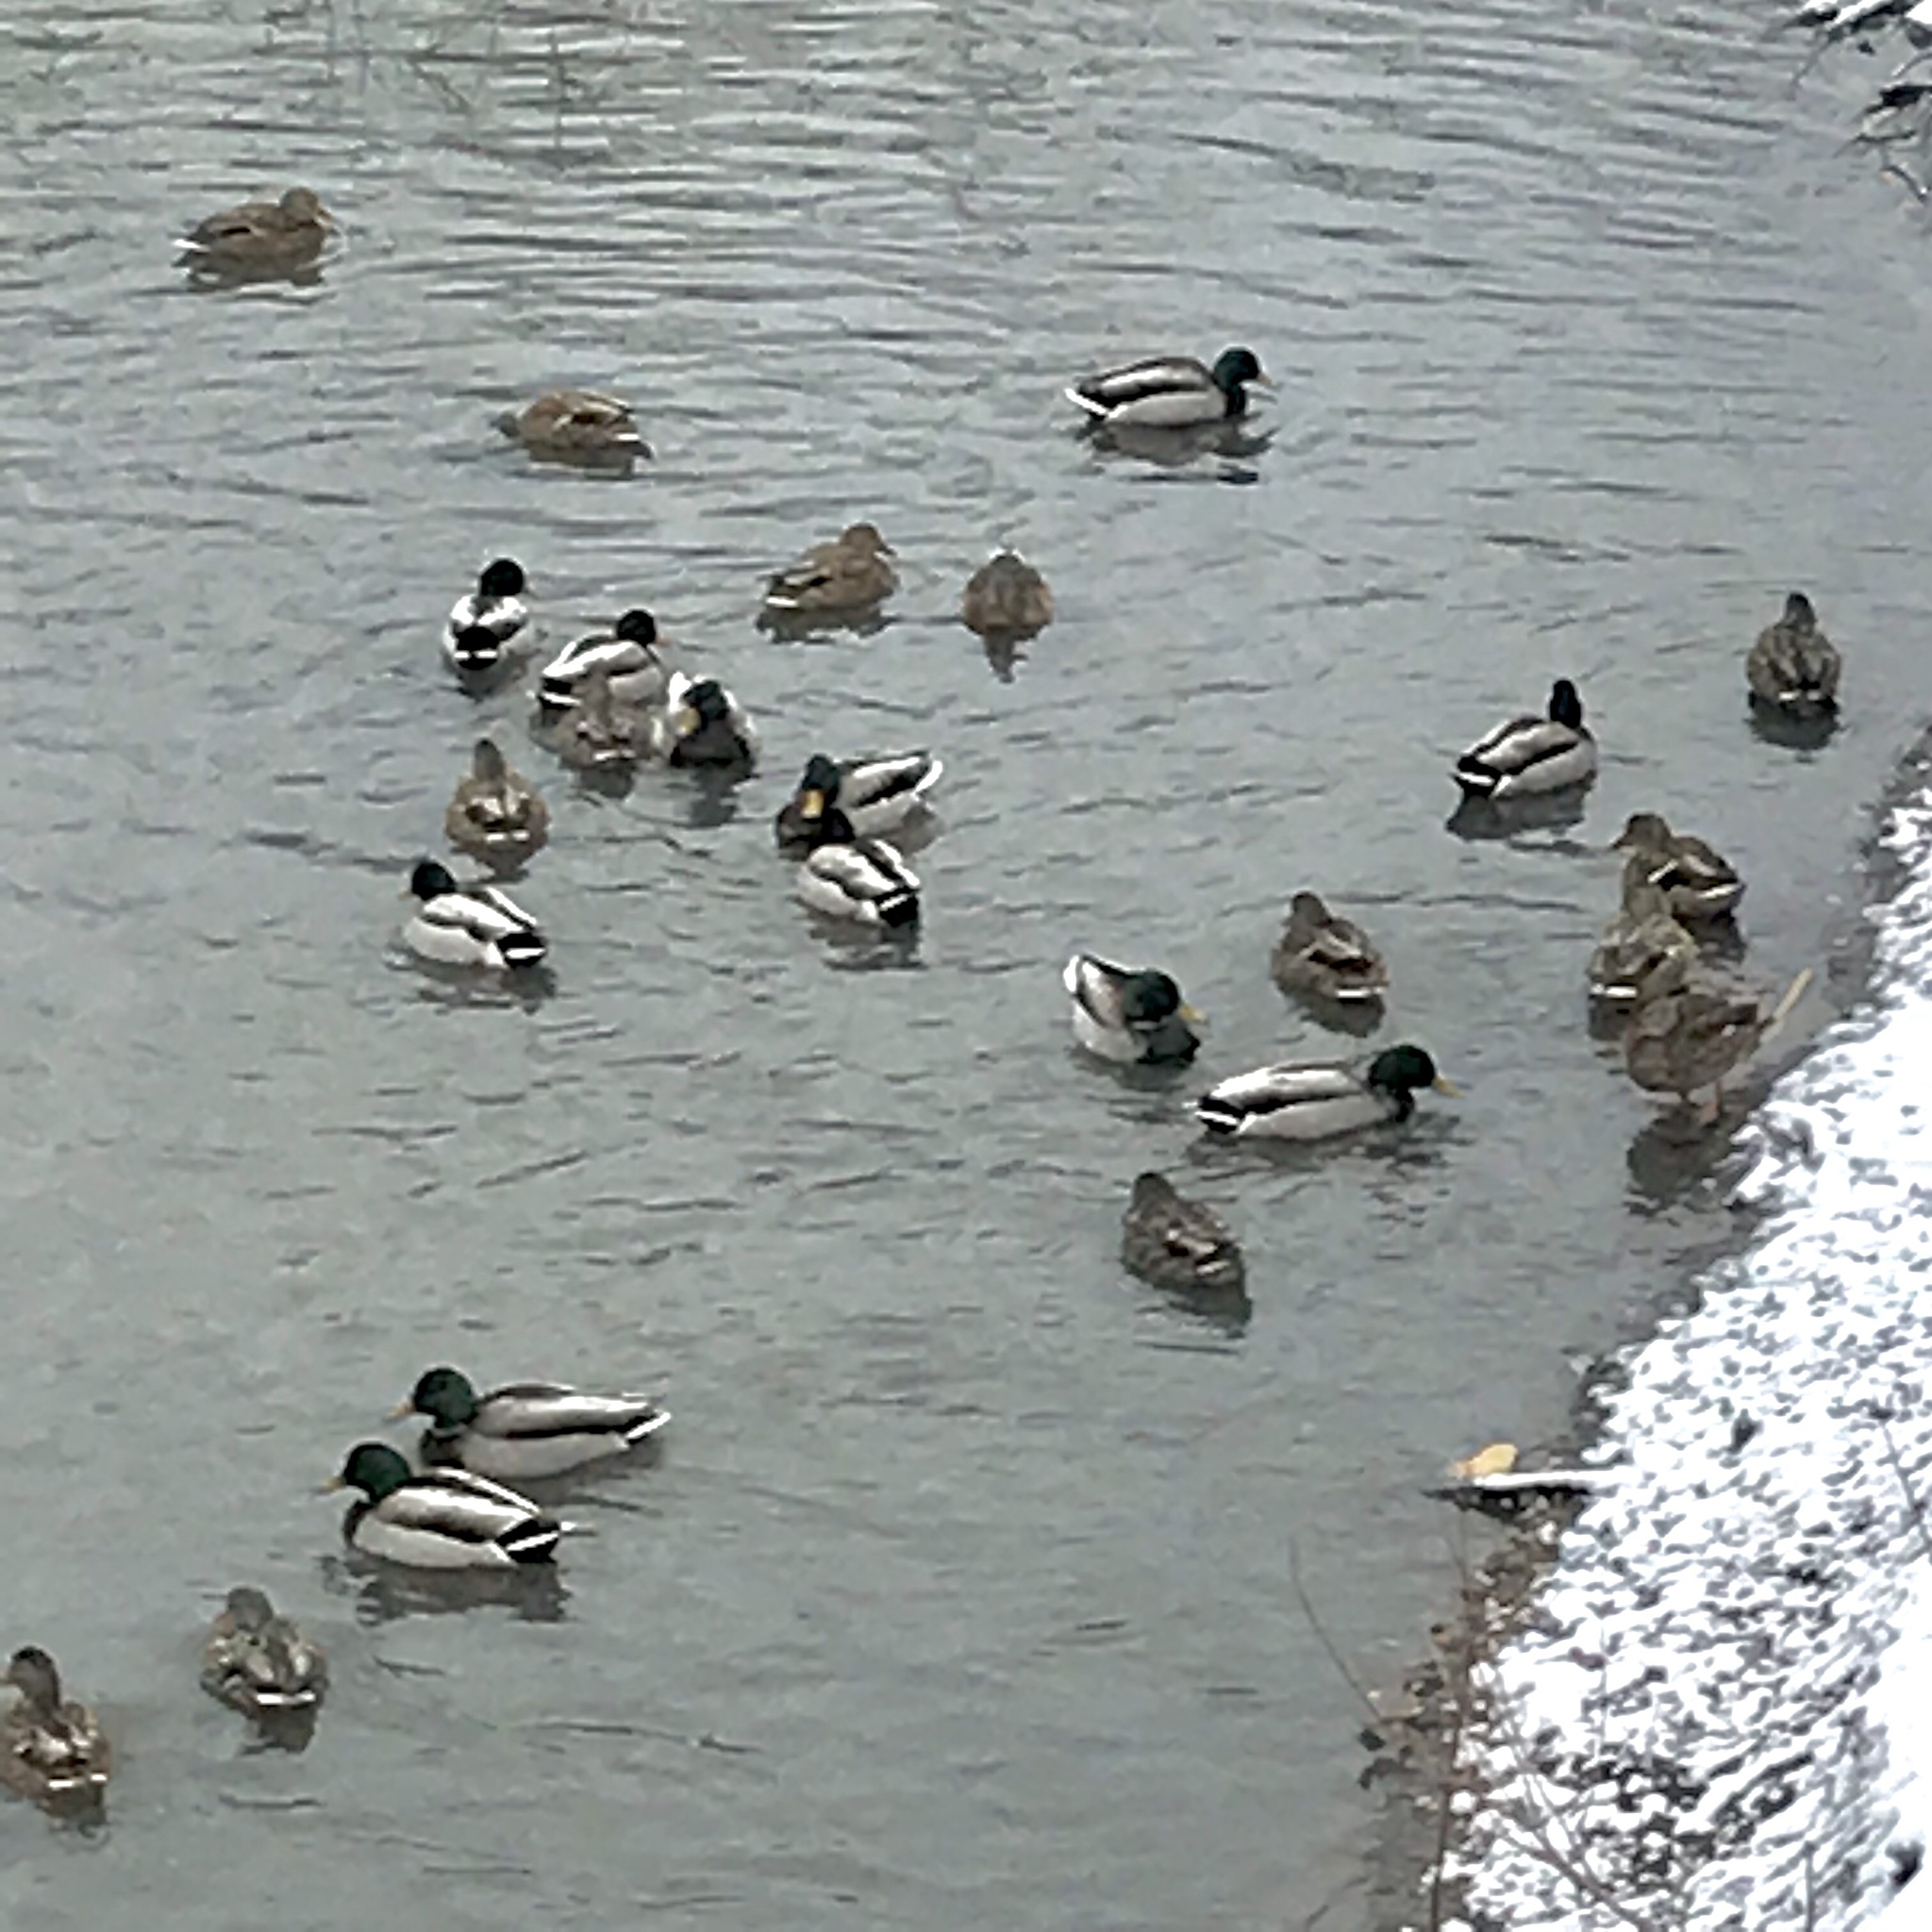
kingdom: Animalia
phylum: Chordata
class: Aves
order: Anseriformes
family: Anatidae
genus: Anas
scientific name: Anas platyrhynchos
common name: Mallard
